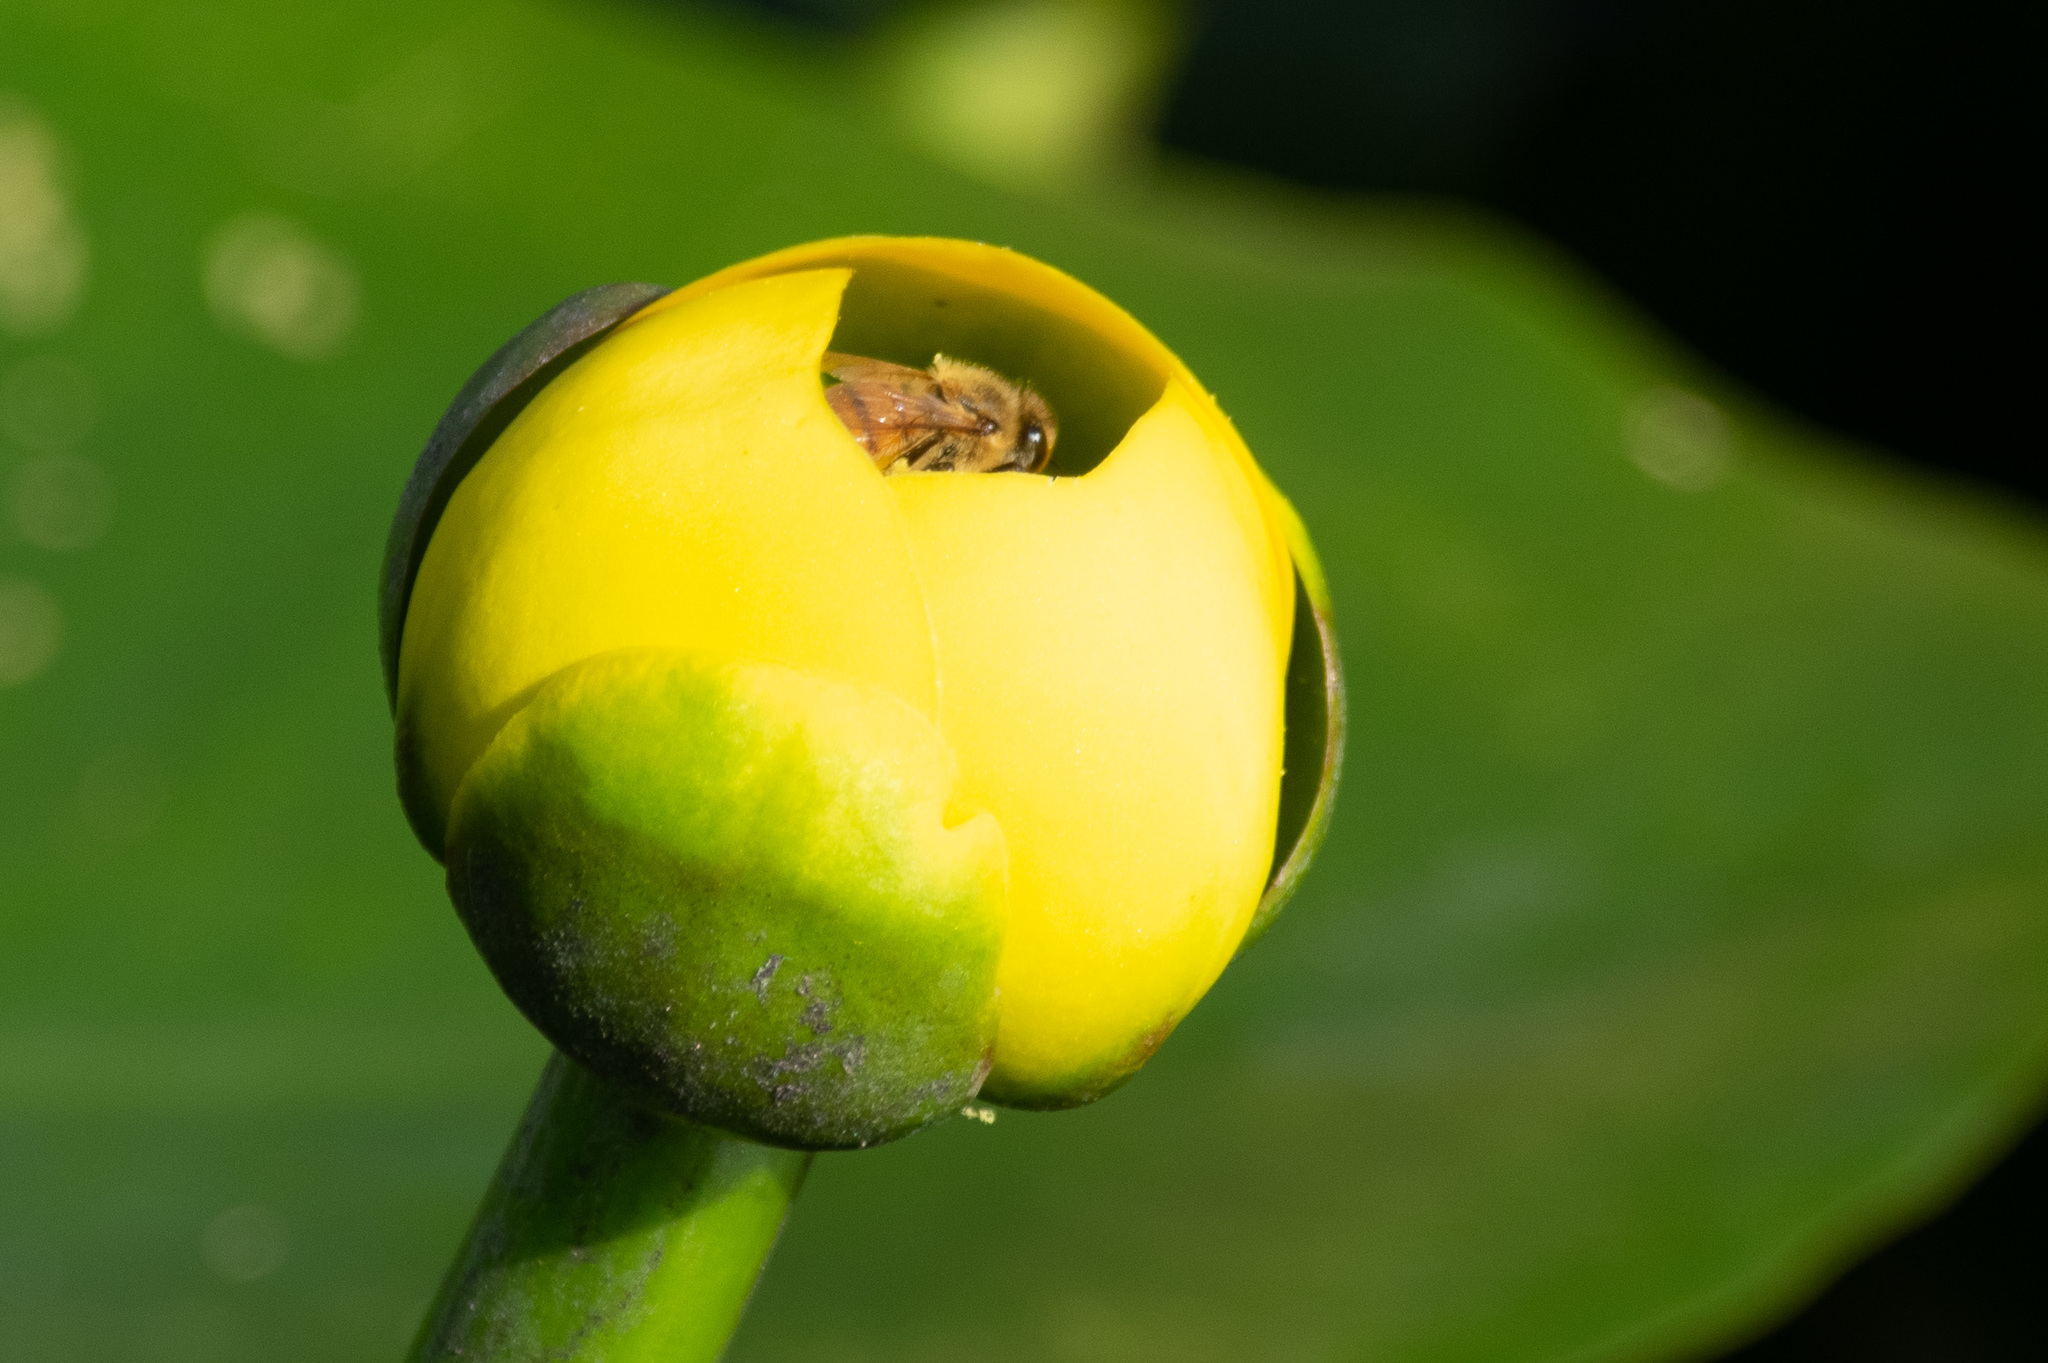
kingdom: Animalia
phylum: Arthropoda
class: Insecta
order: Hymenoptera
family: Apidae
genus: Apis
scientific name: Apis mellifera
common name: Honey bee
